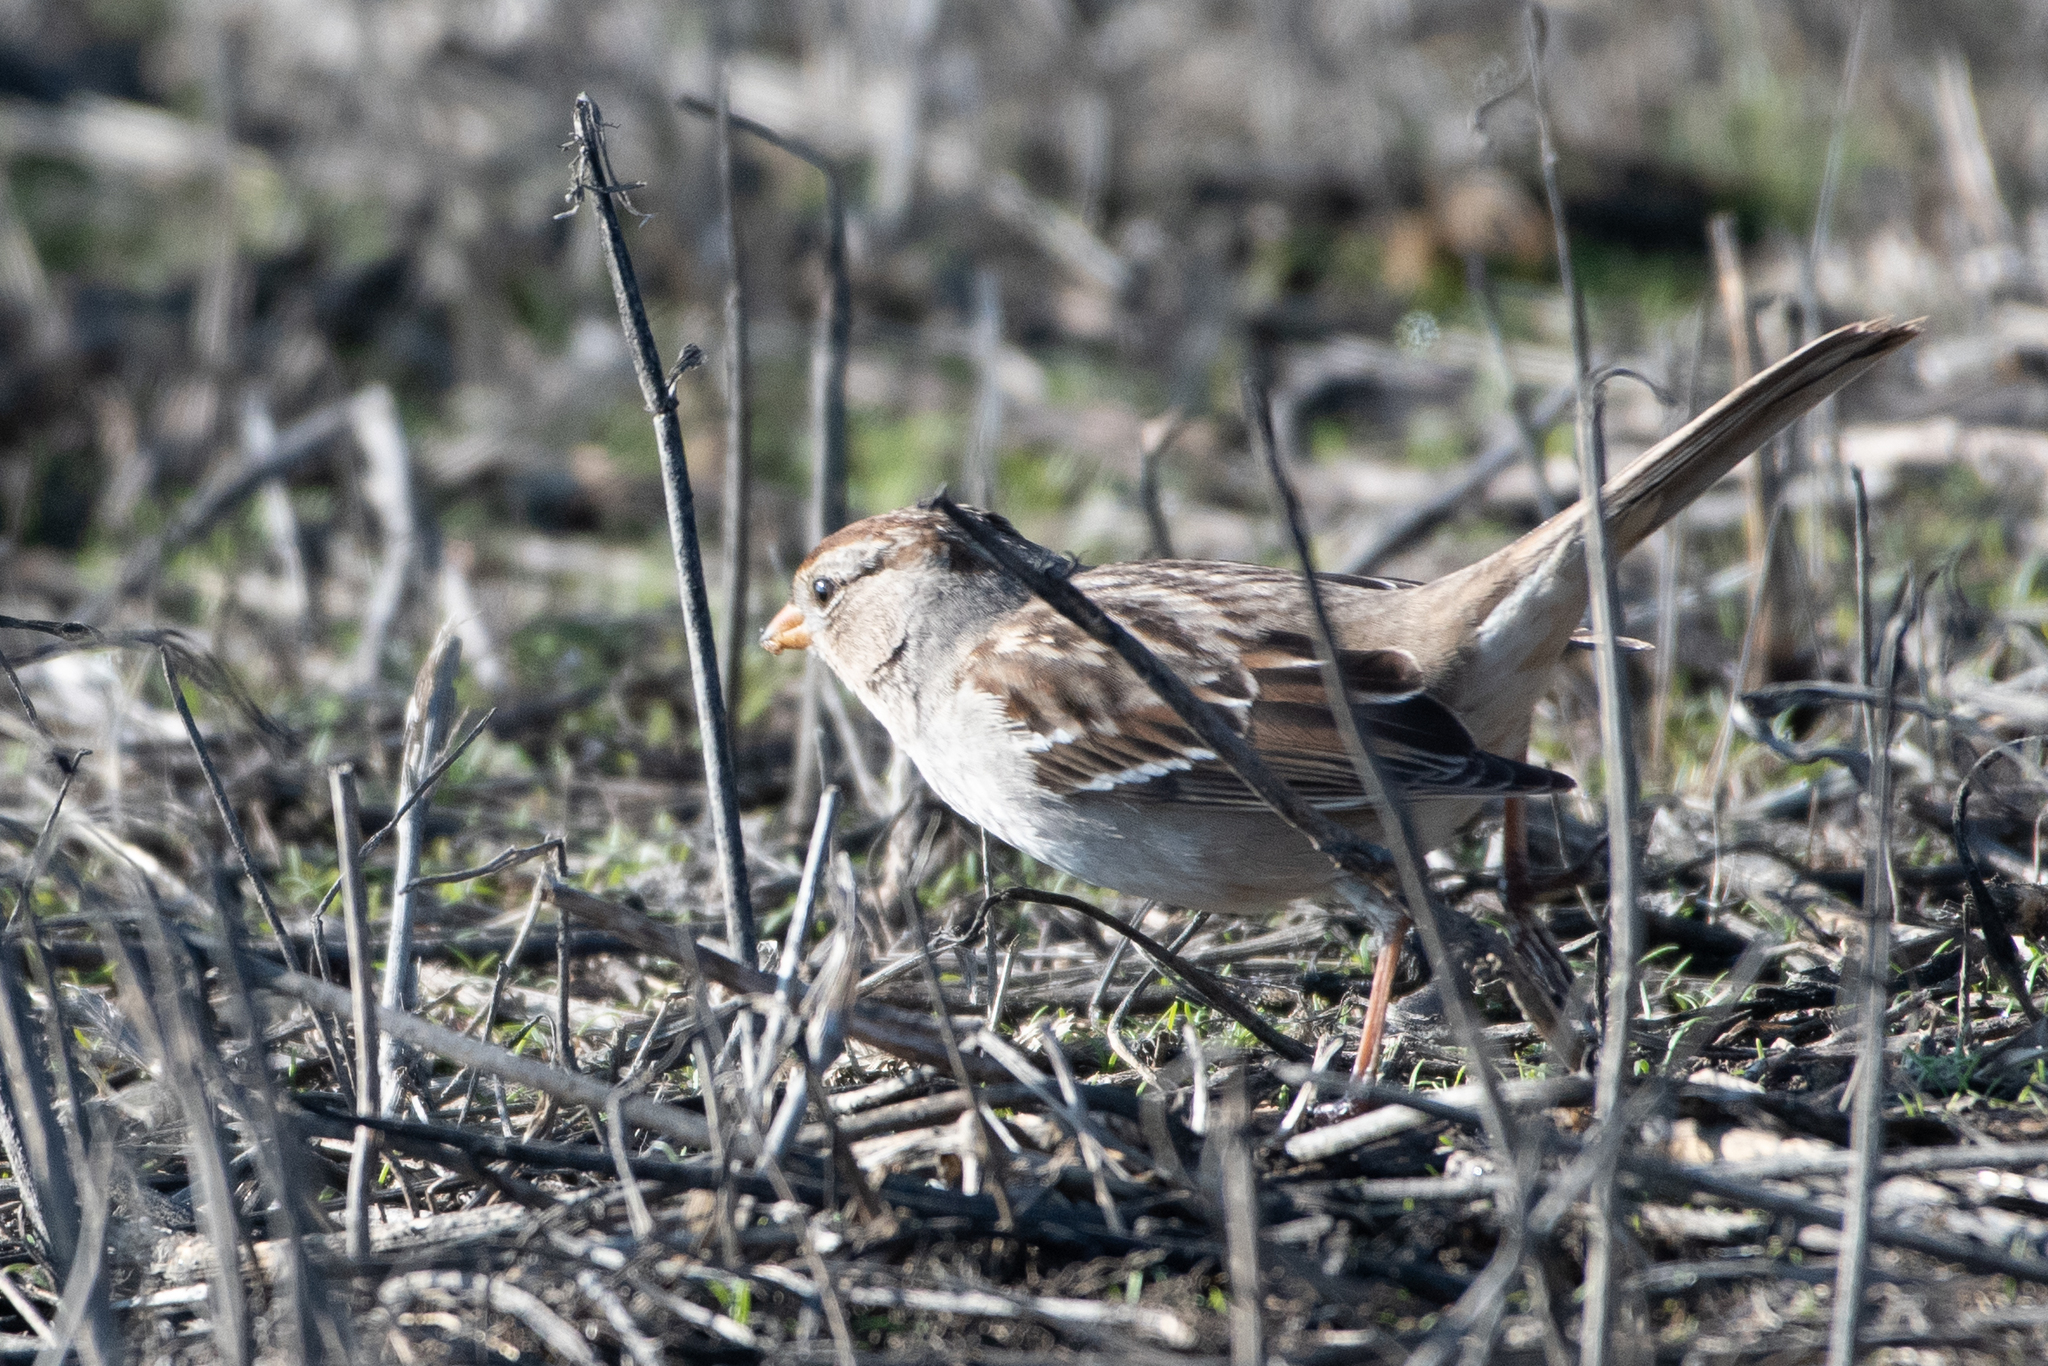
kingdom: Animalia
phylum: Chordata
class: Aves
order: Passeriformes
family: Passerellidae
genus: Zonotrichia
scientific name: Zonotrichia leucophrys
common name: White-crowned sparrow
